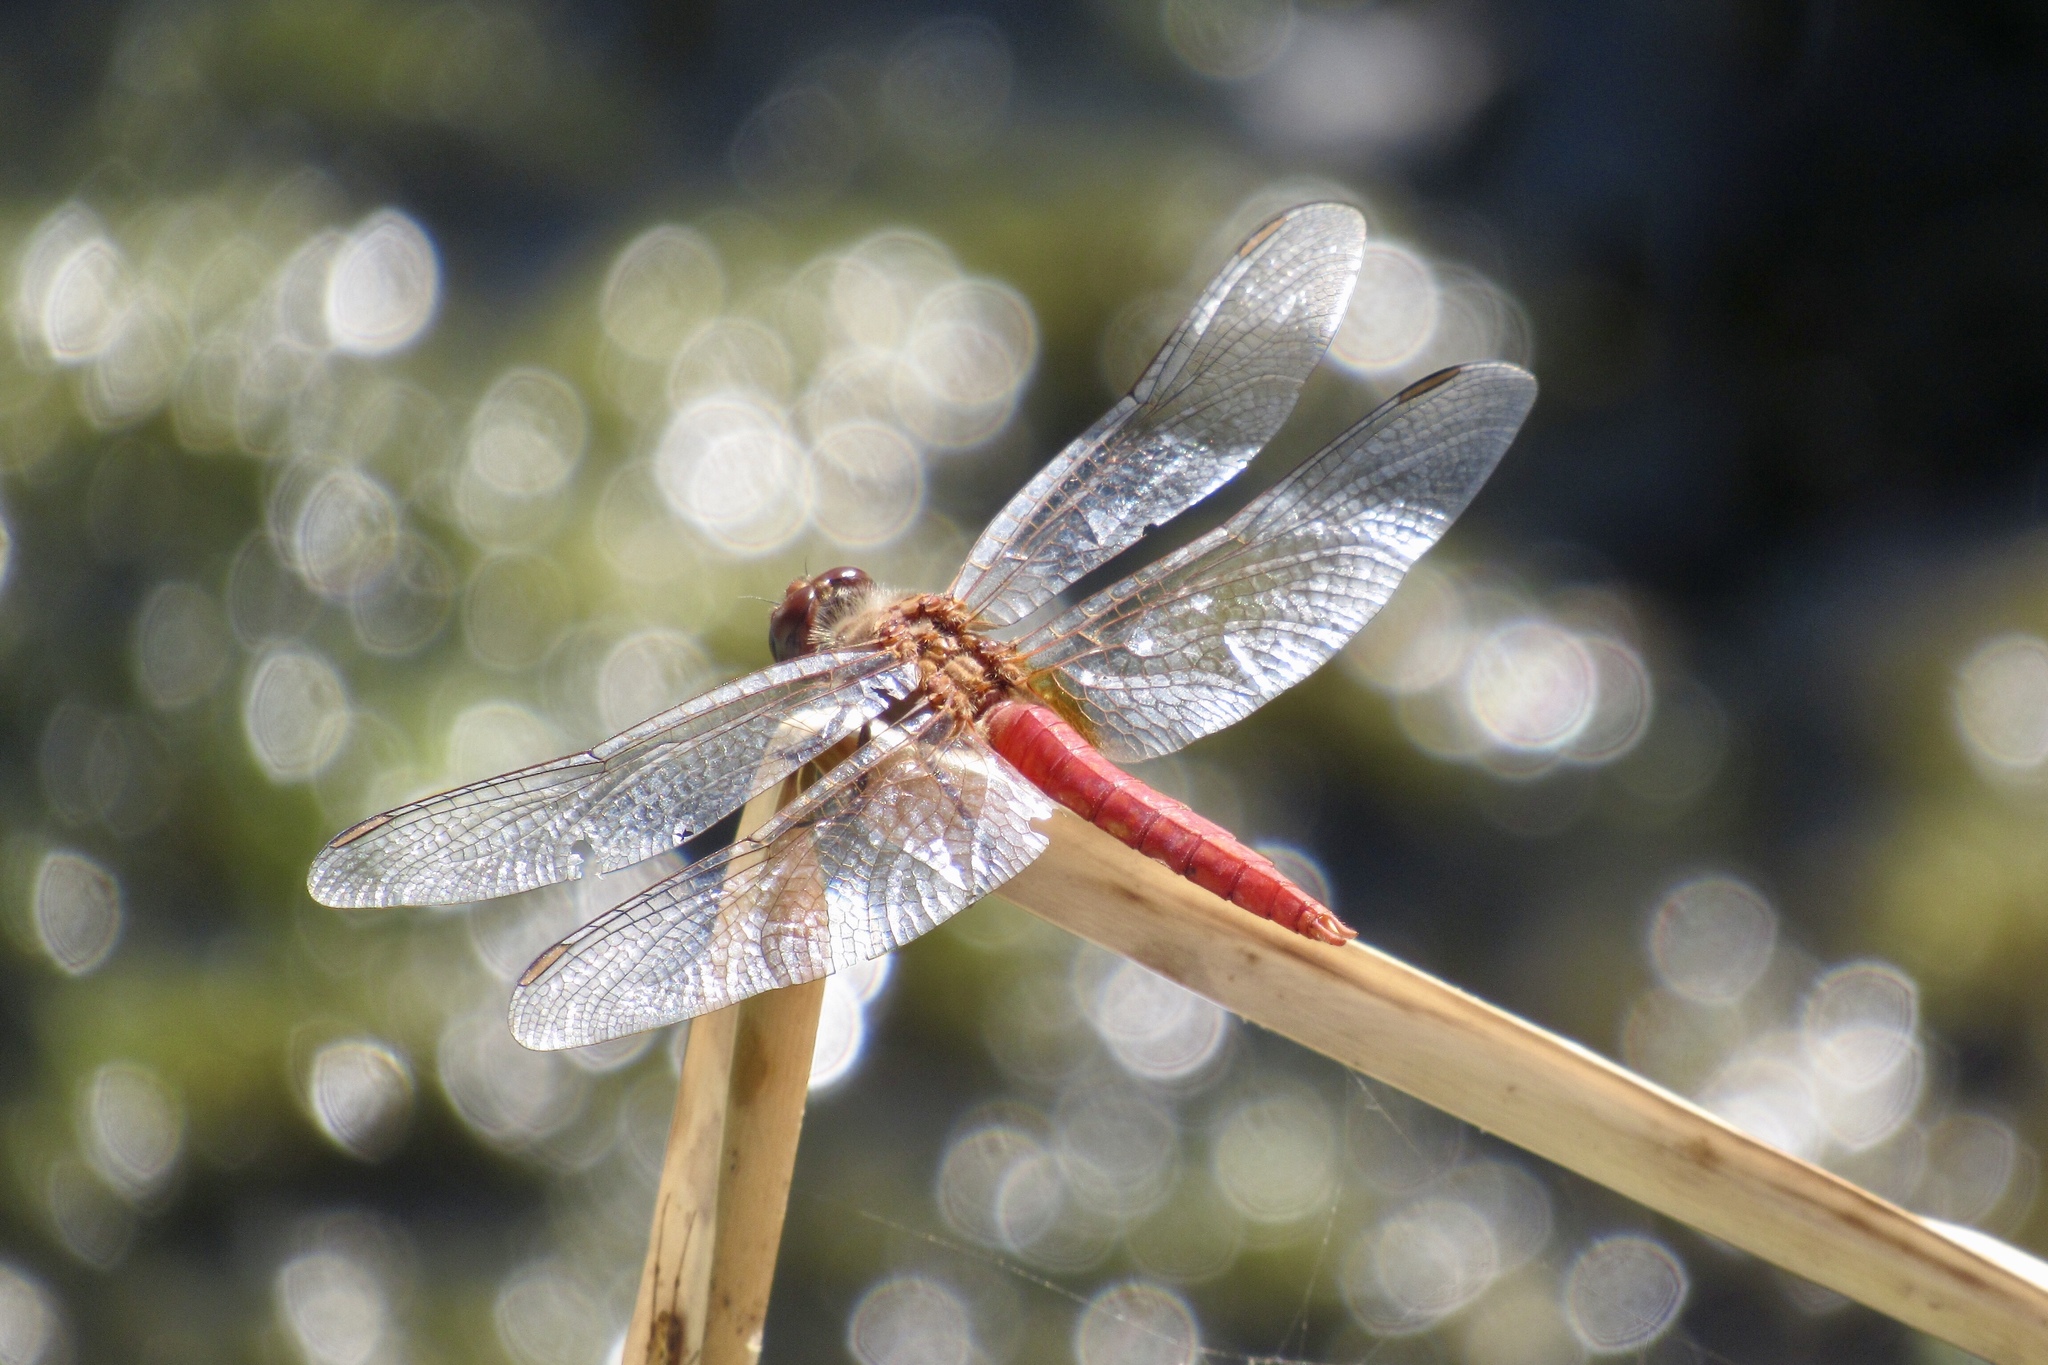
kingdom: Animalia
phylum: Arthropoda
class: Insecta
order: Odonata
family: Libellulidae
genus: Brachymesia
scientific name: Brachymesia furcata
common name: Red-taled pennant
